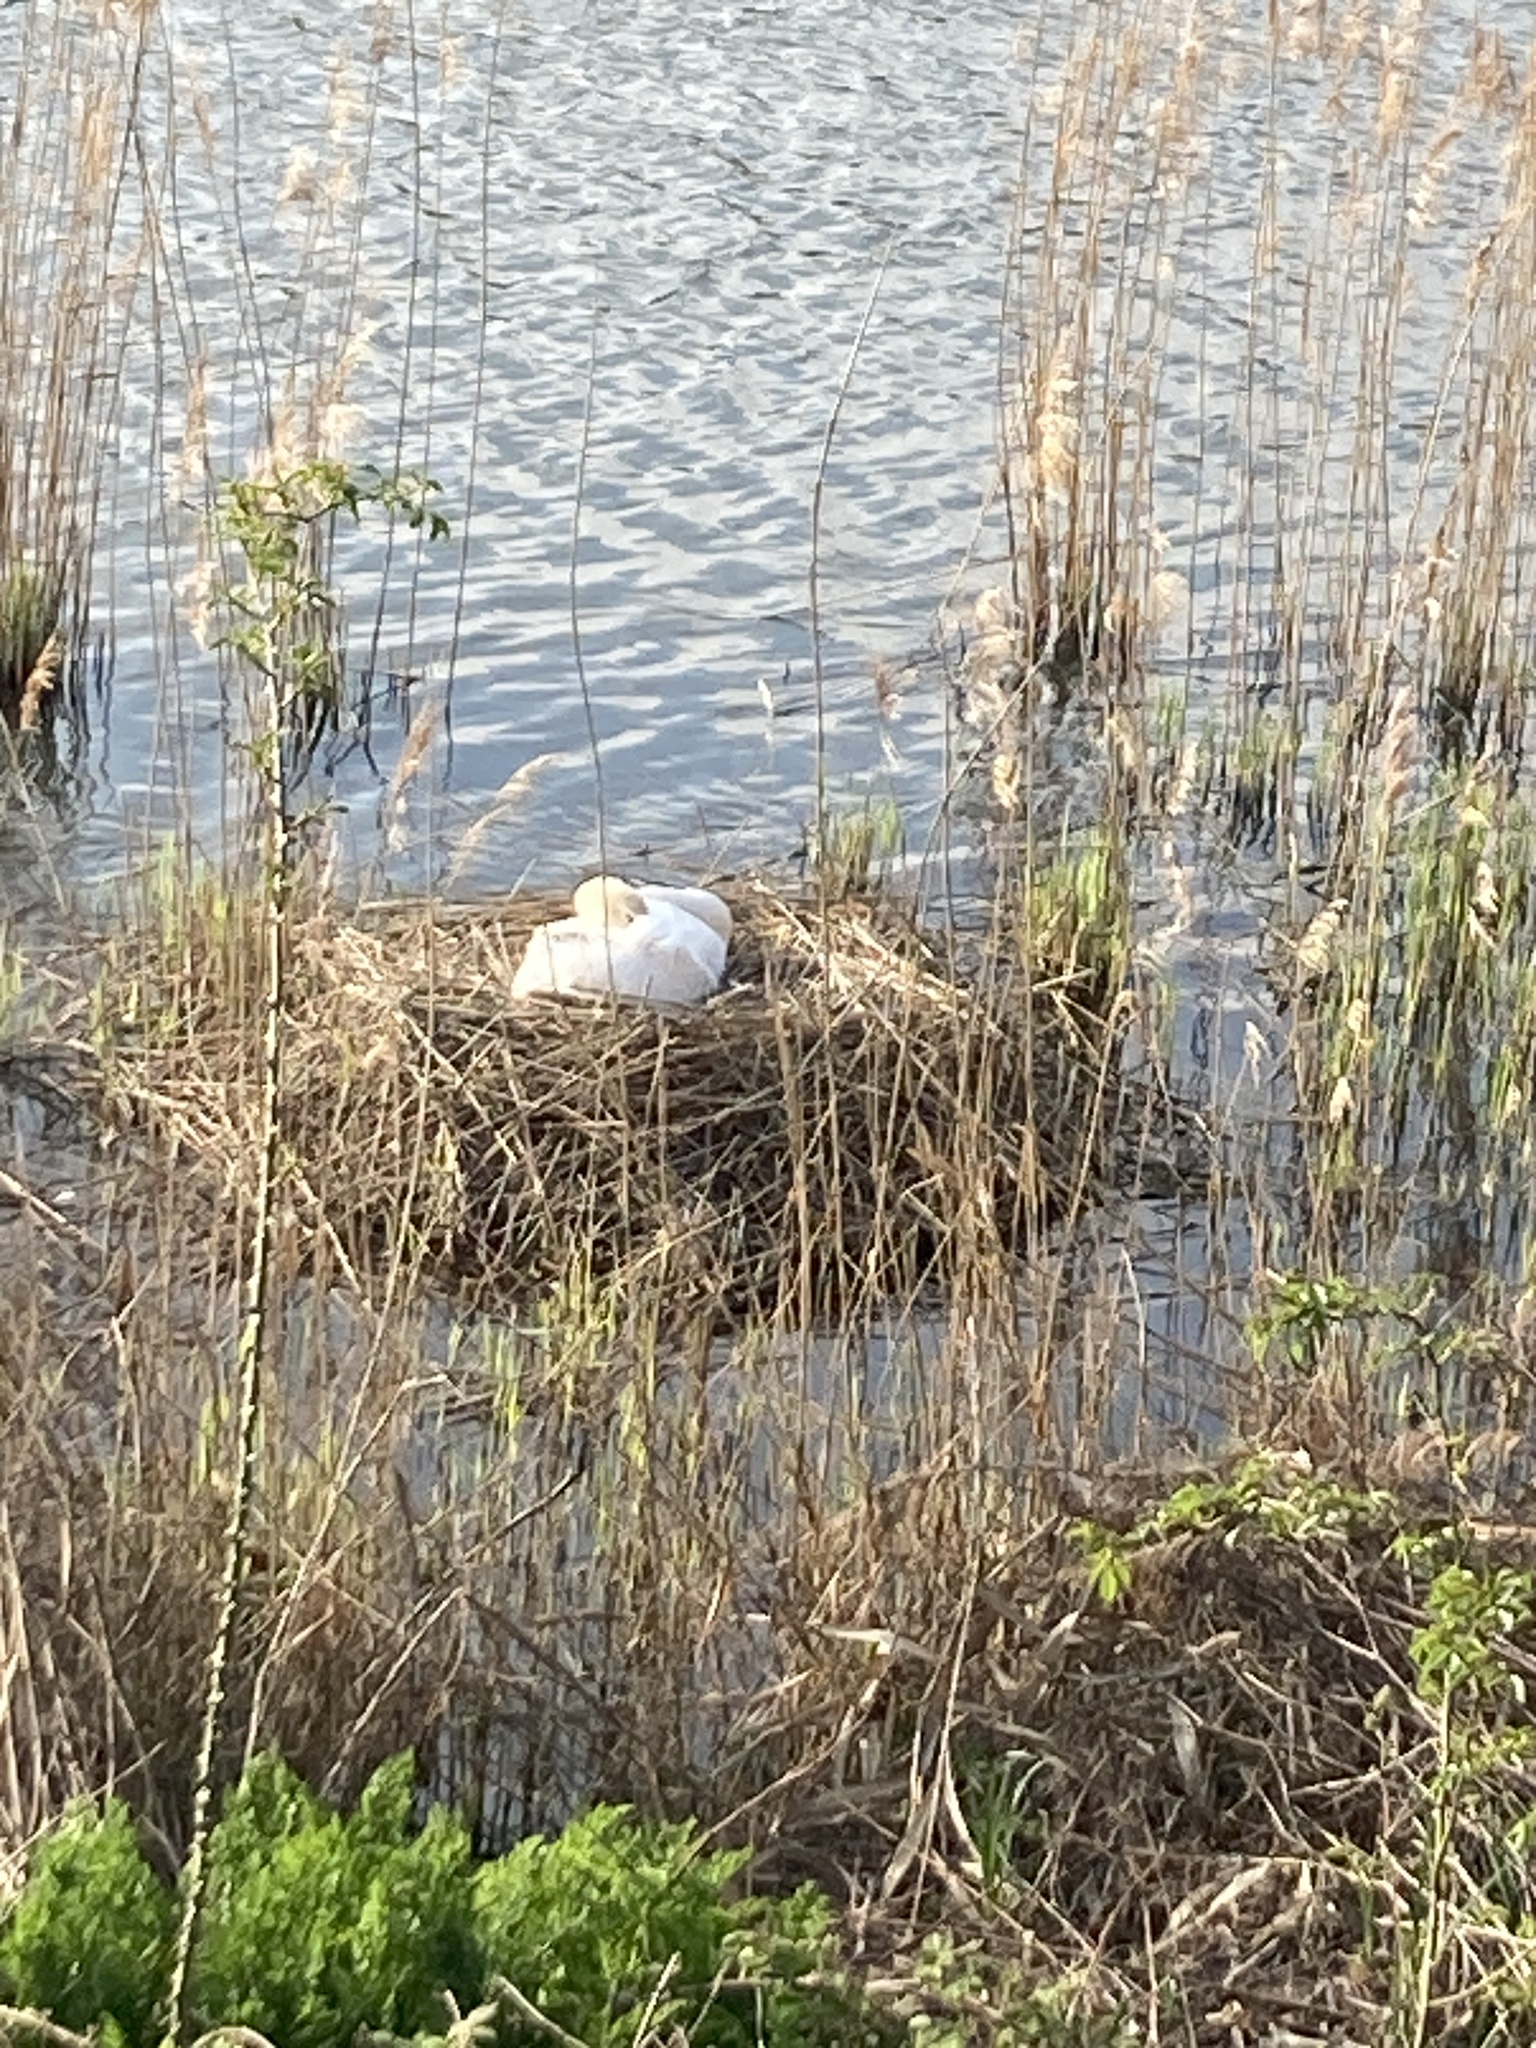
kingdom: Animalia
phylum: Chordata
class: Aves
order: Anseriformes
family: Anatidae
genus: Cygnus
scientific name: Cygnus olor
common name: Mute swan
